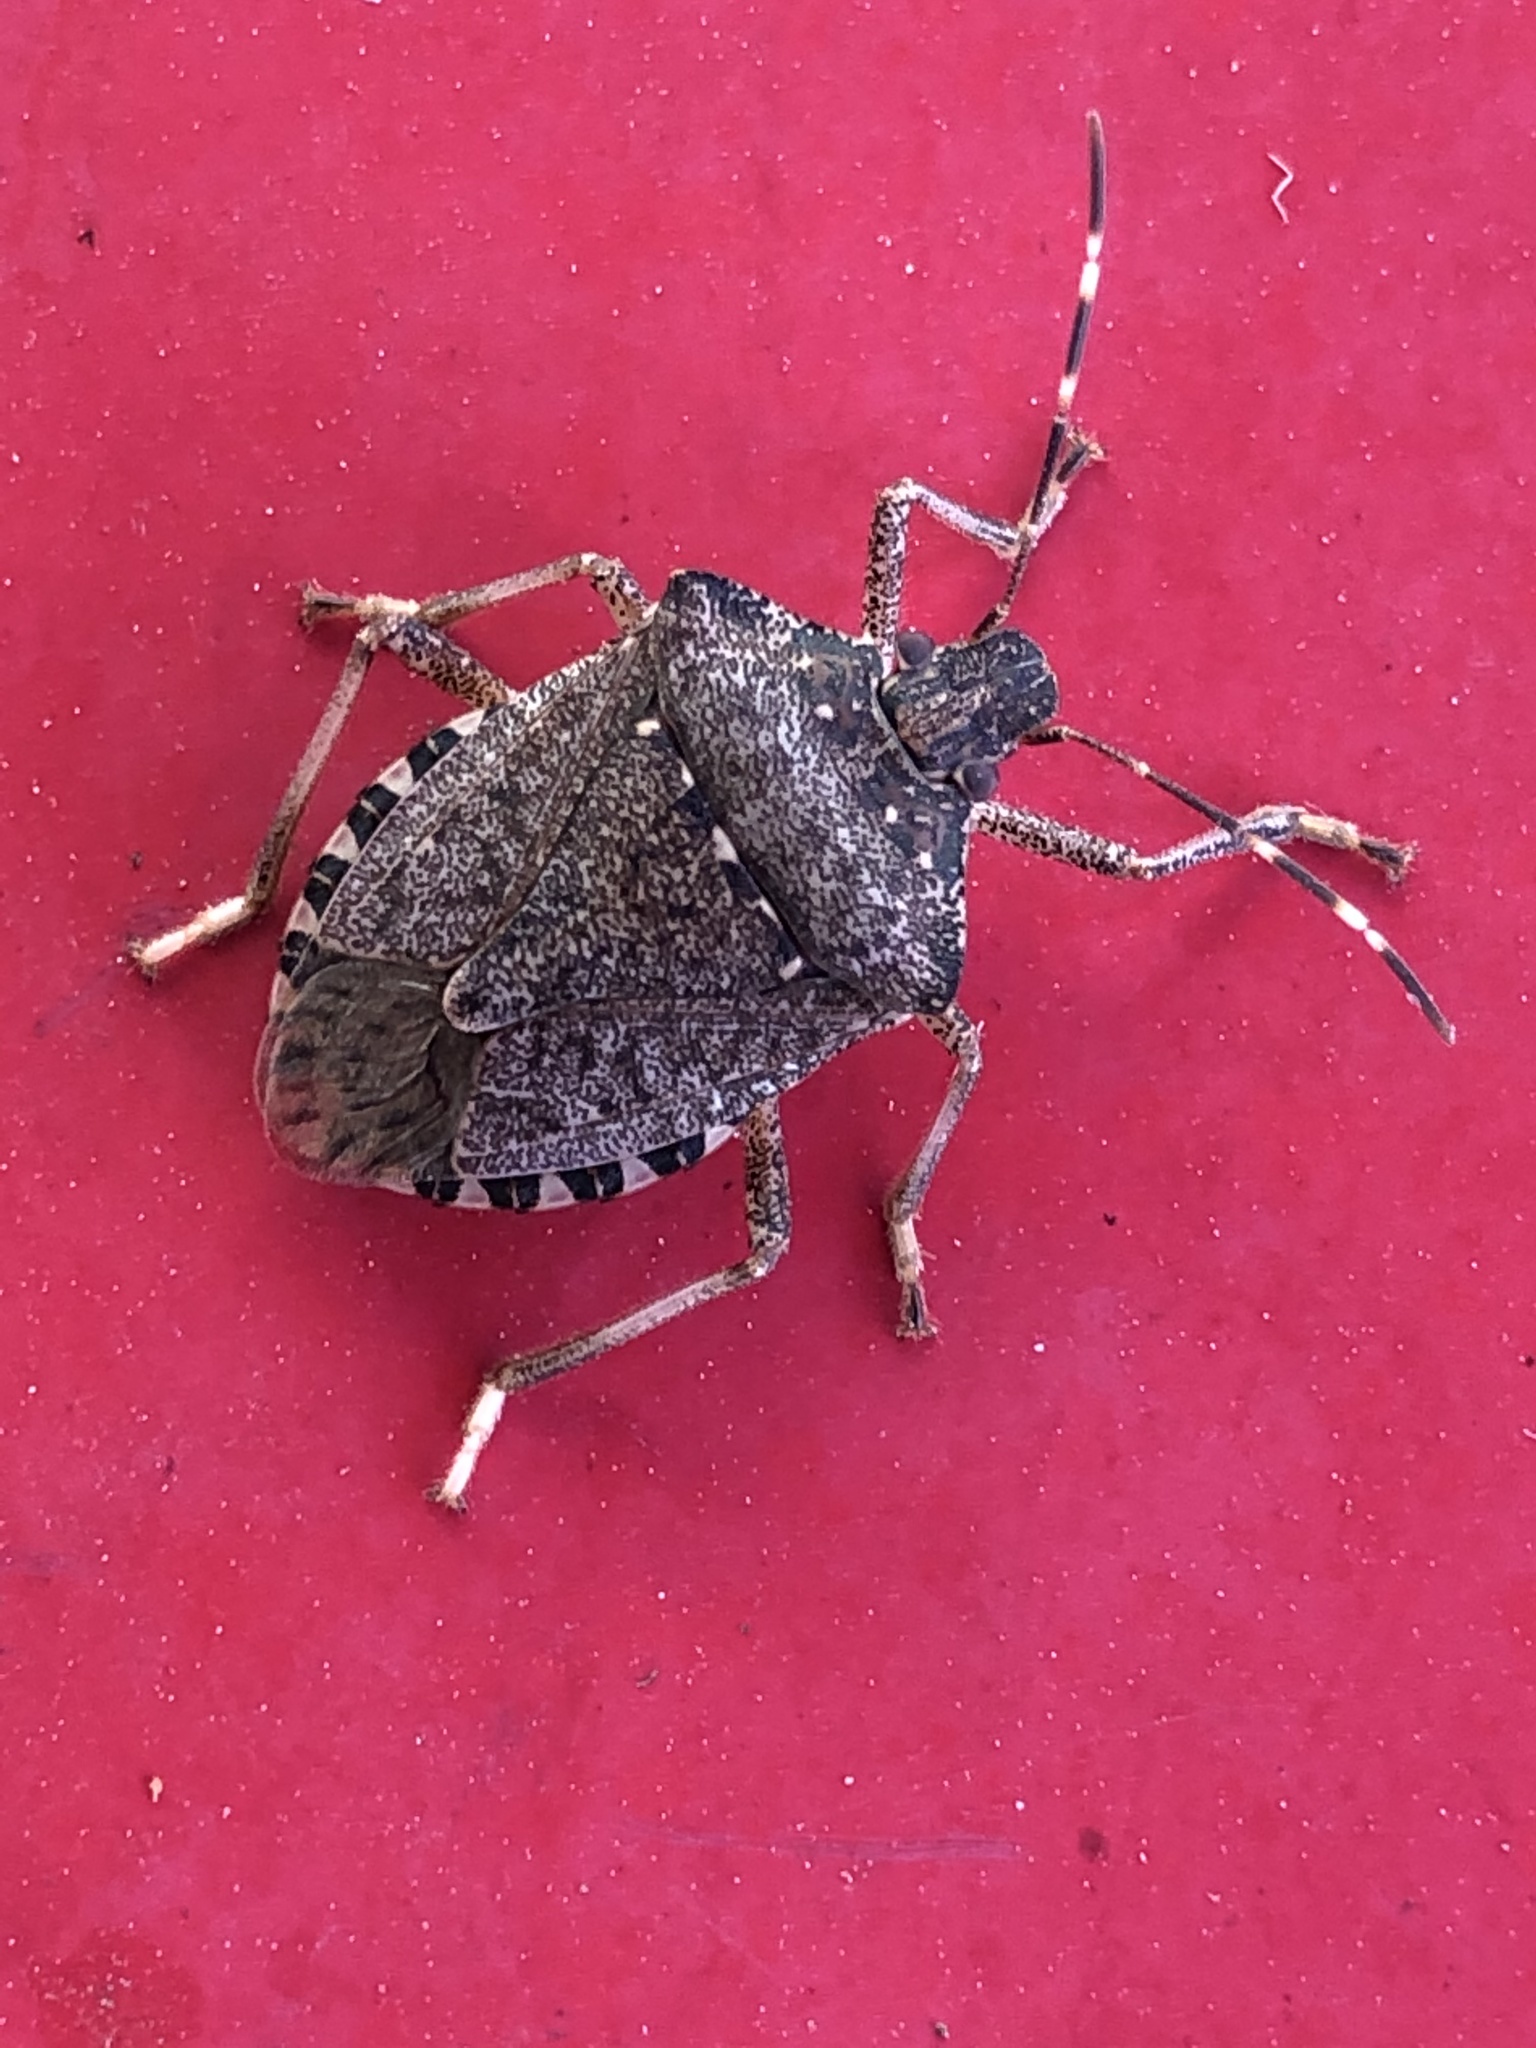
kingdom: Animalia
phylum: Arthropoda
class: Insecta
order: Hemiptera
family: Pentatomidae
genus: Halyomorpha
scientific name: Halyomorpha halys
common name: Brown marmorated stink bug
